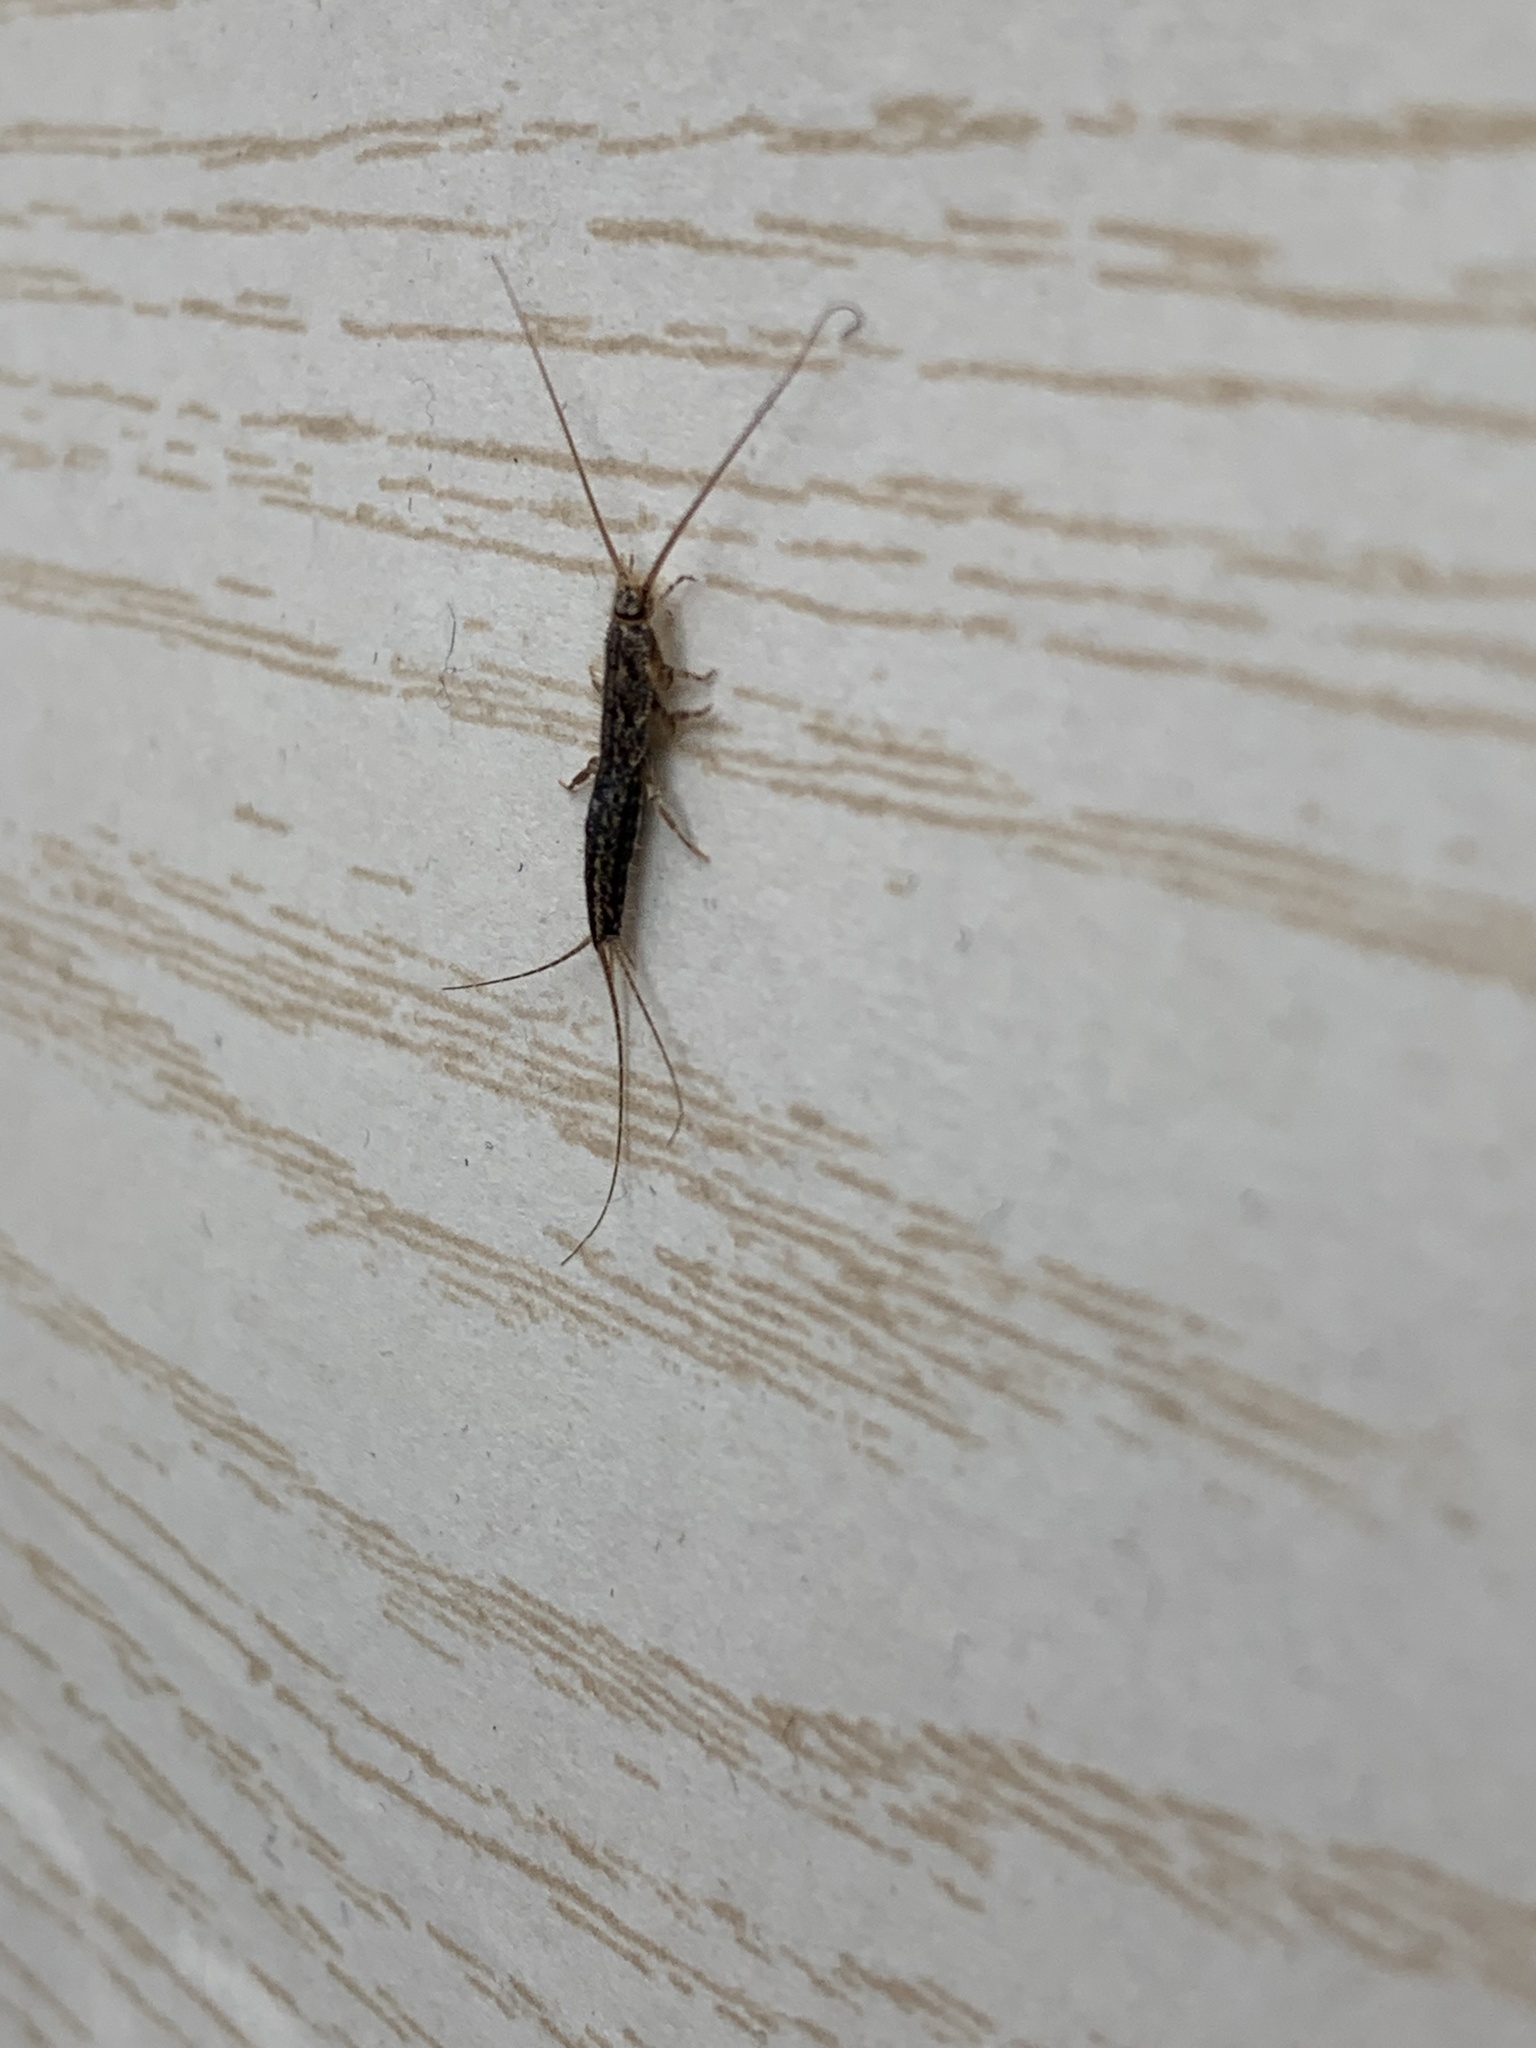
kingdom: Animalia
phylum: Arthropoda
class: Insecta
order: Zygentoma
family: Lepismatidae
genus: Ctenolepisma
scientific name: Ctenolepisma lineata
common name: Four-lined silverfish
